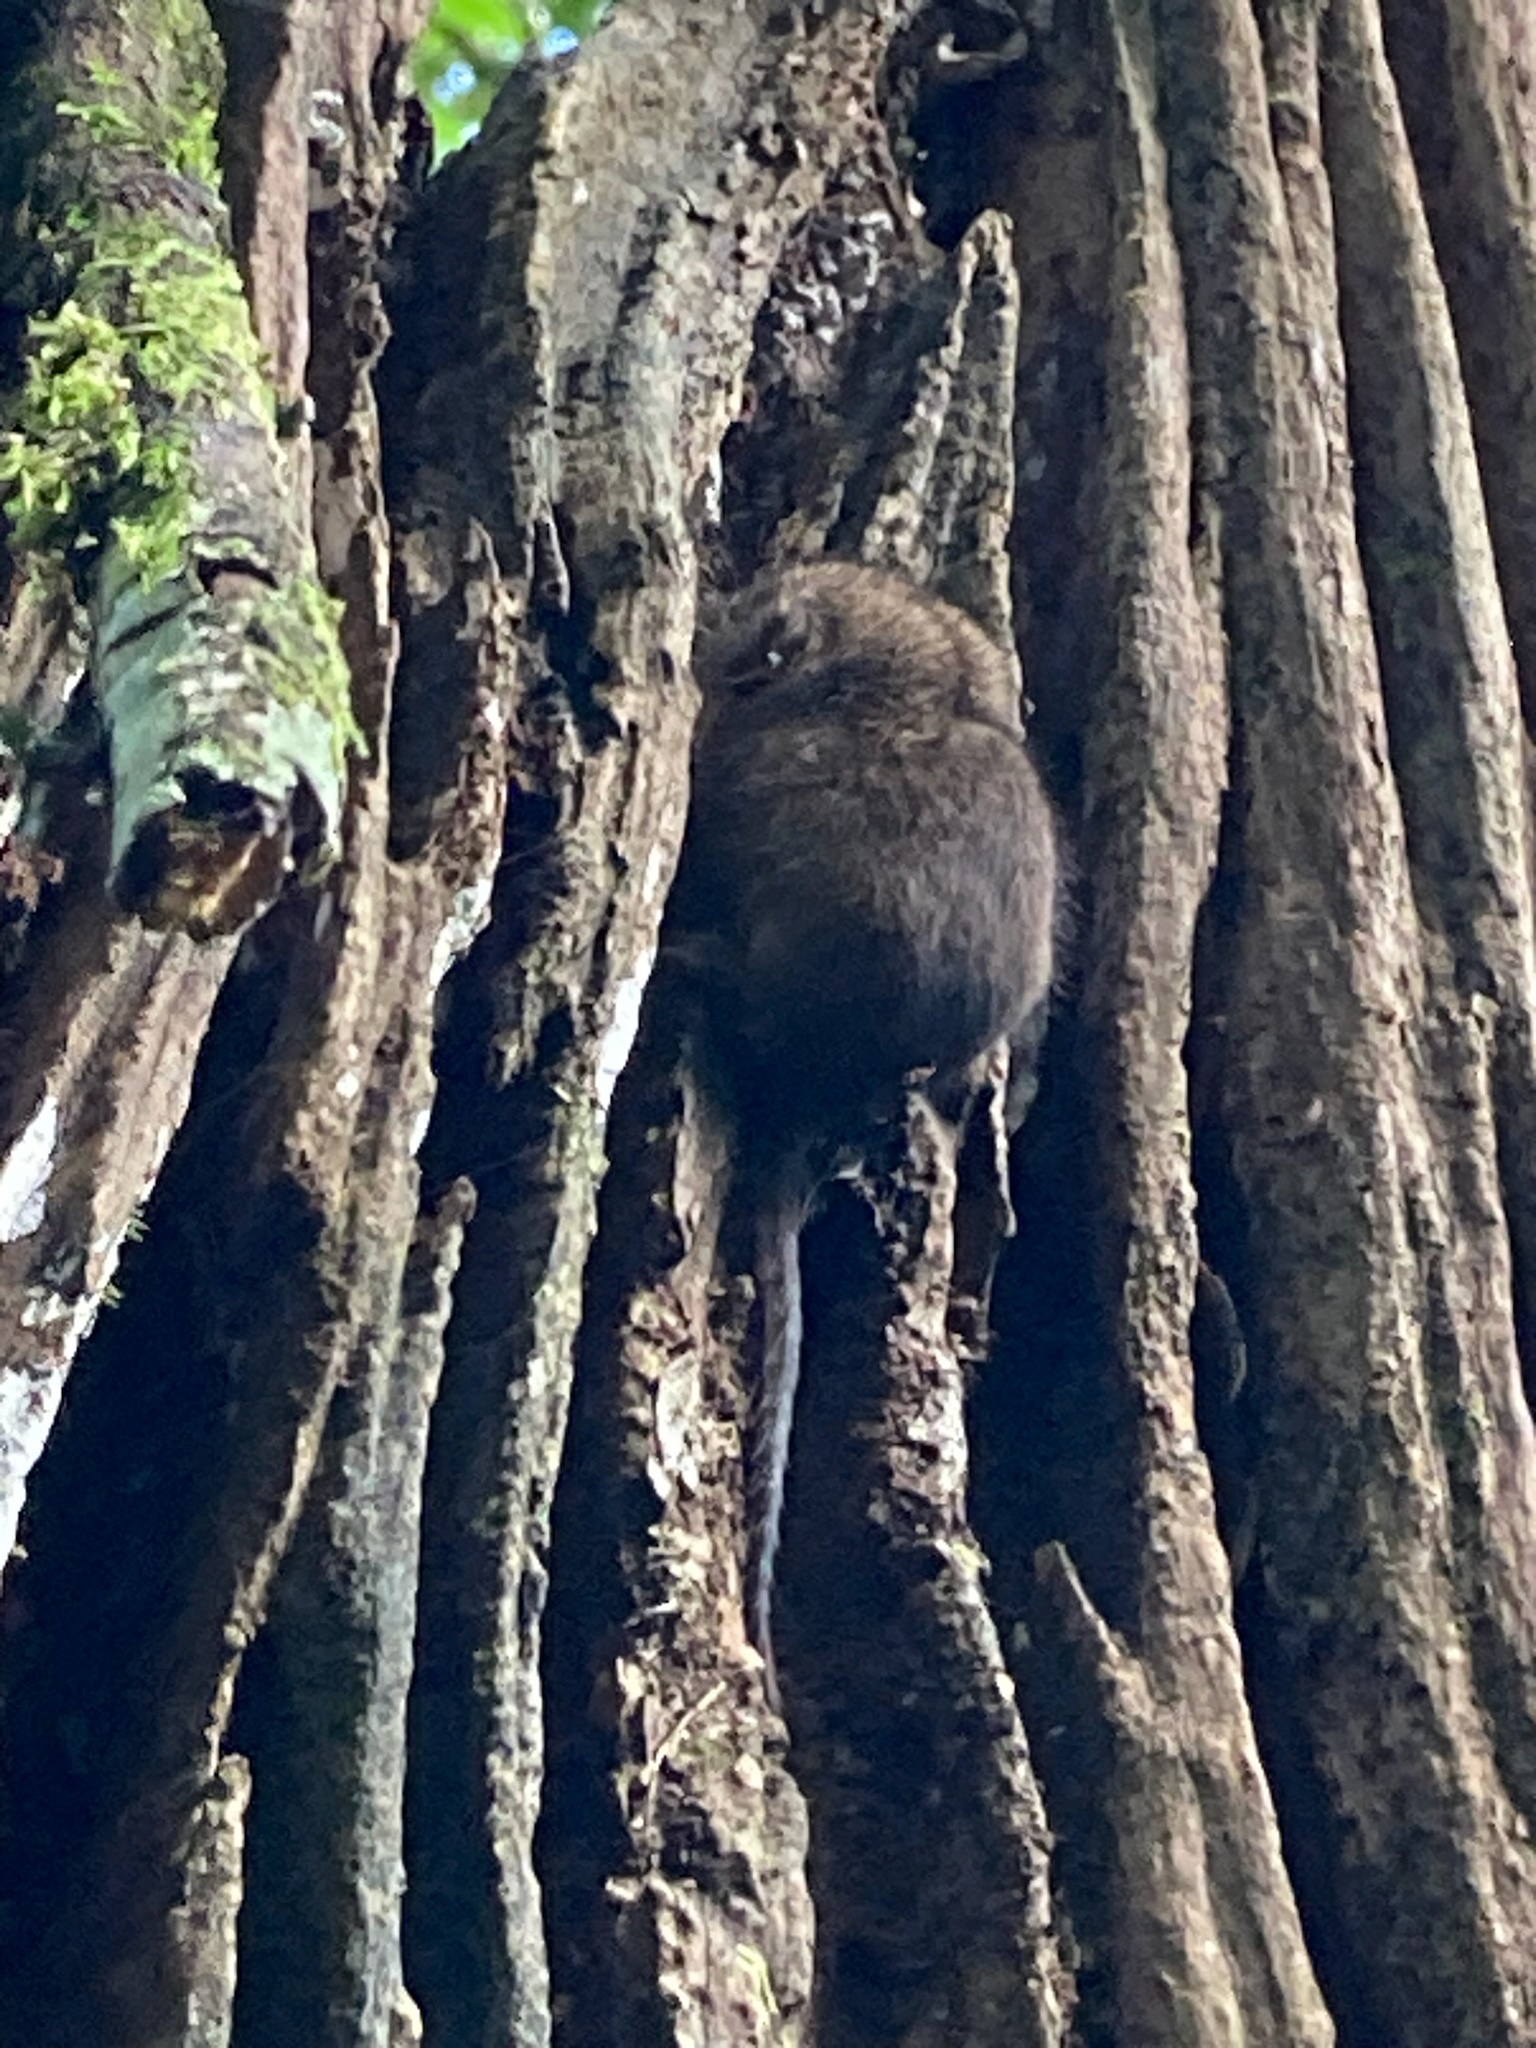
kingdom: Animalia
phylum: Chordata
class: Mammalia
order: Dasyuromorphia
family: Dasyuridae
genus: Antechinus
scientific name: Antechinus stuartii
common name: Brown antechinus
